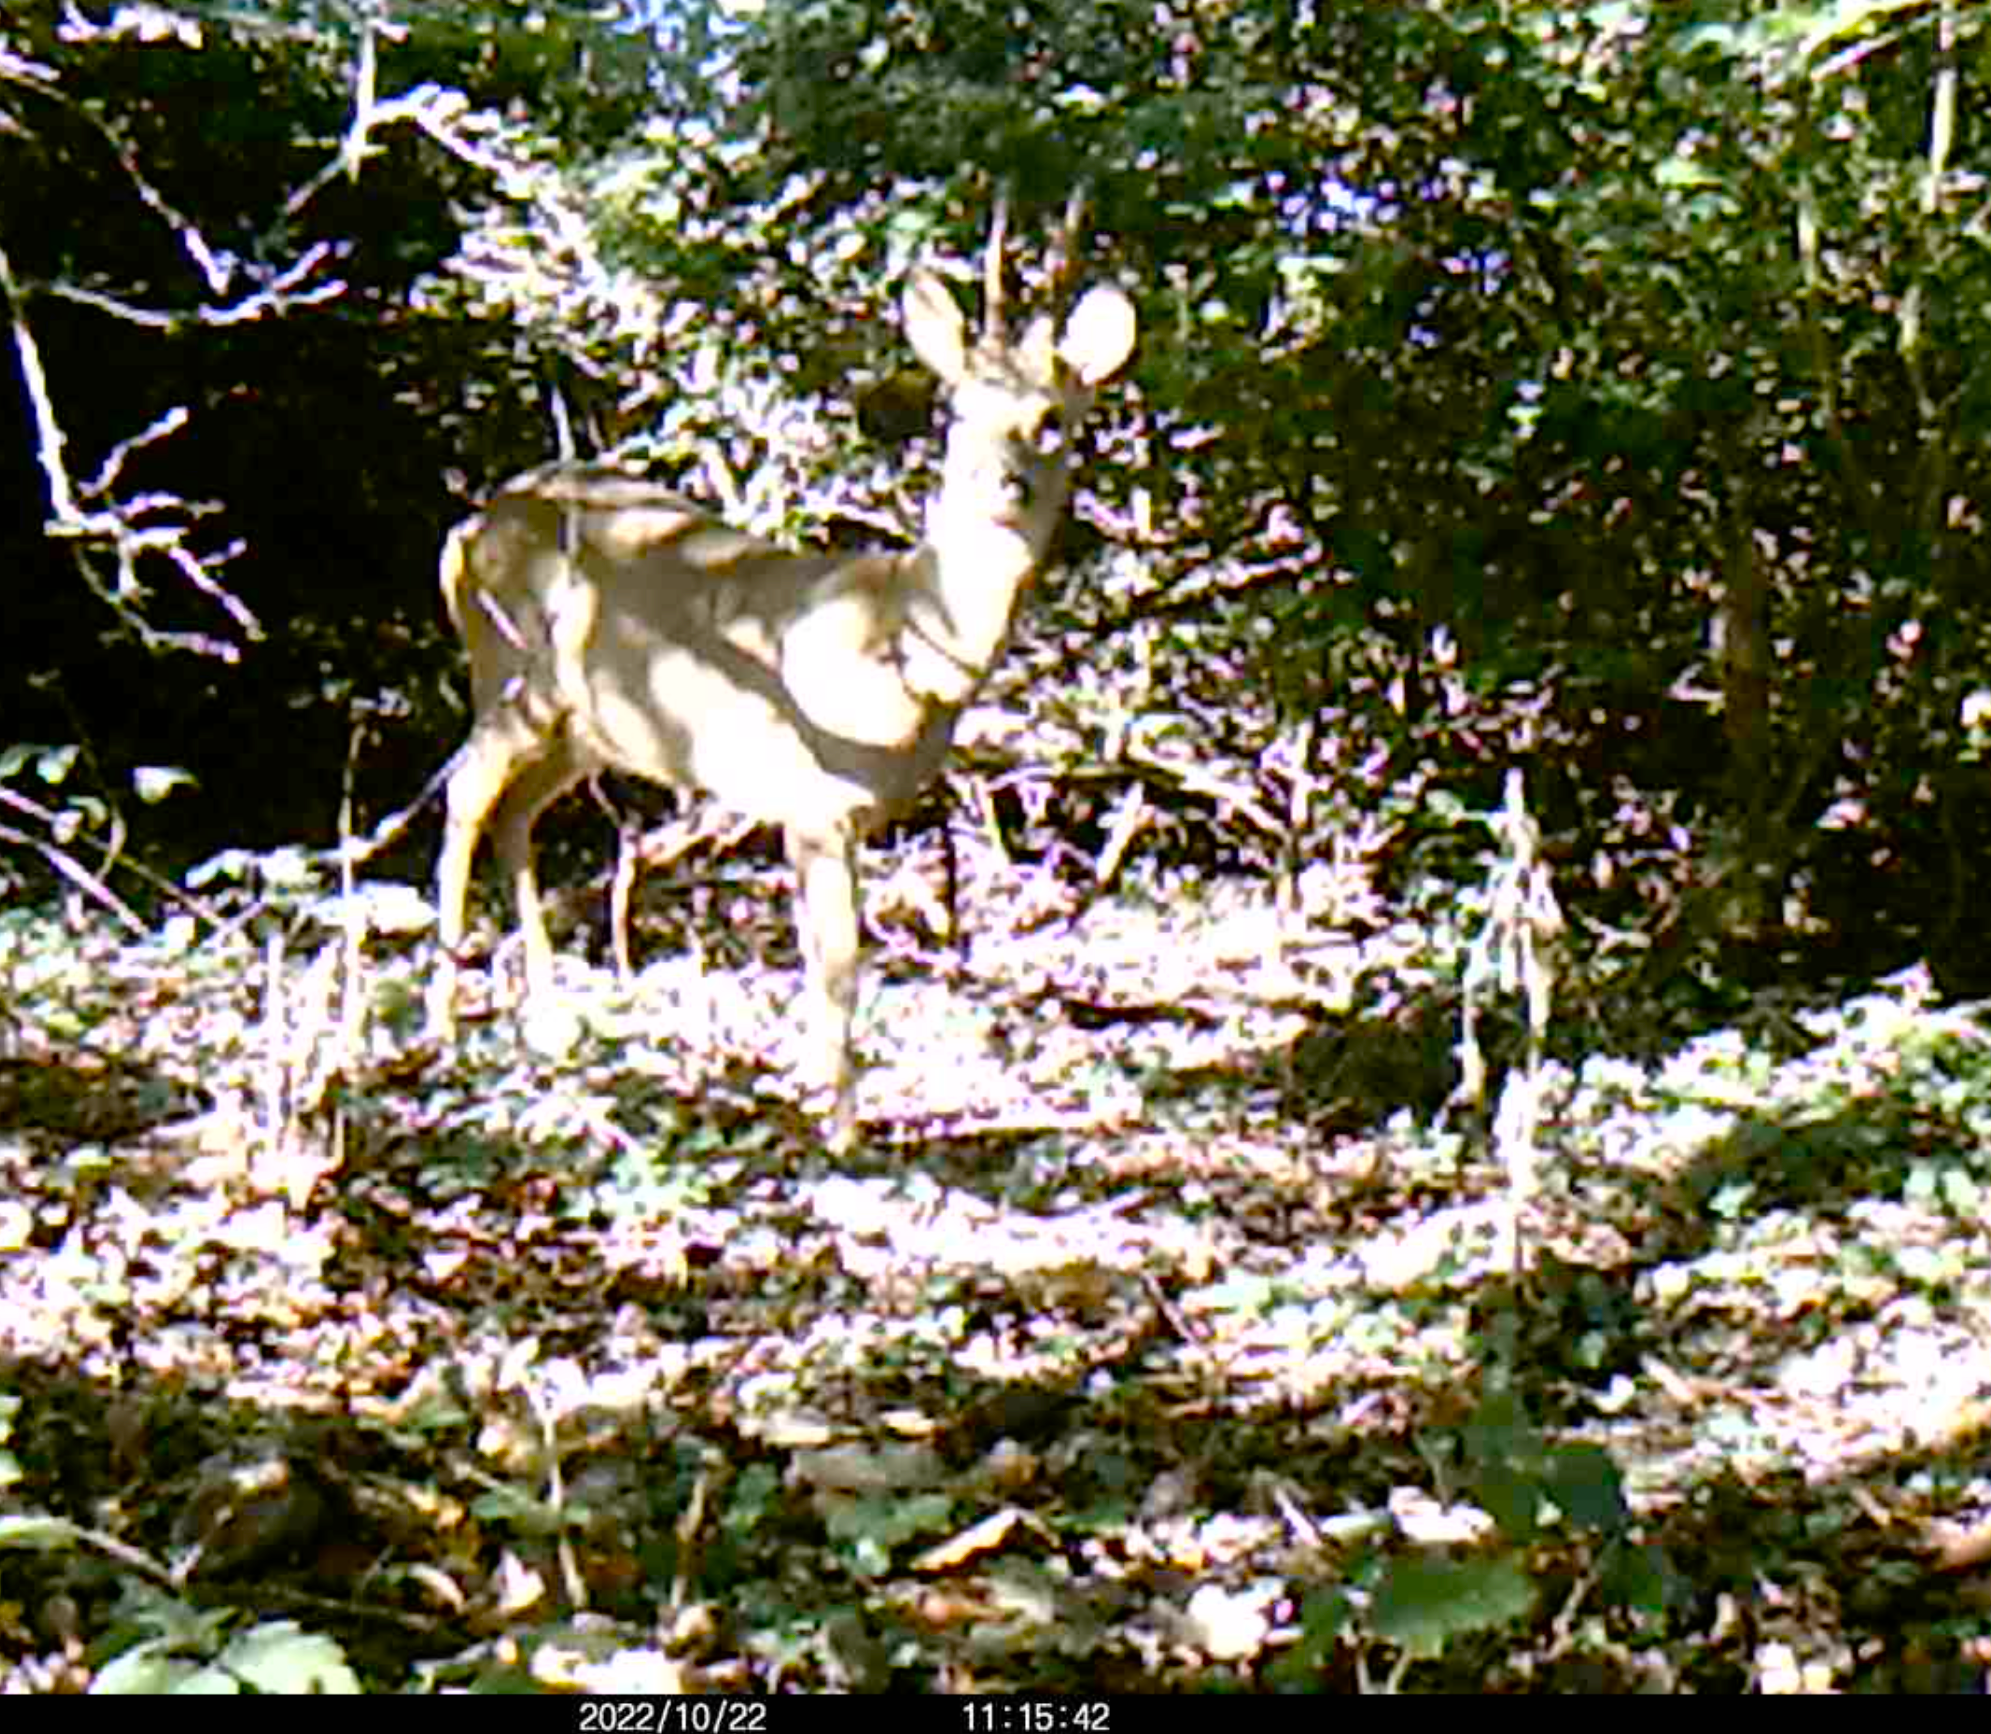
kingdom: Animalia
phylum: Chordata
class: Mammalia
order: Artiodactyla
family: Cervidae
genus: Capreolus
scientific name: Capreolus capreolus
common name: Western roe deer
